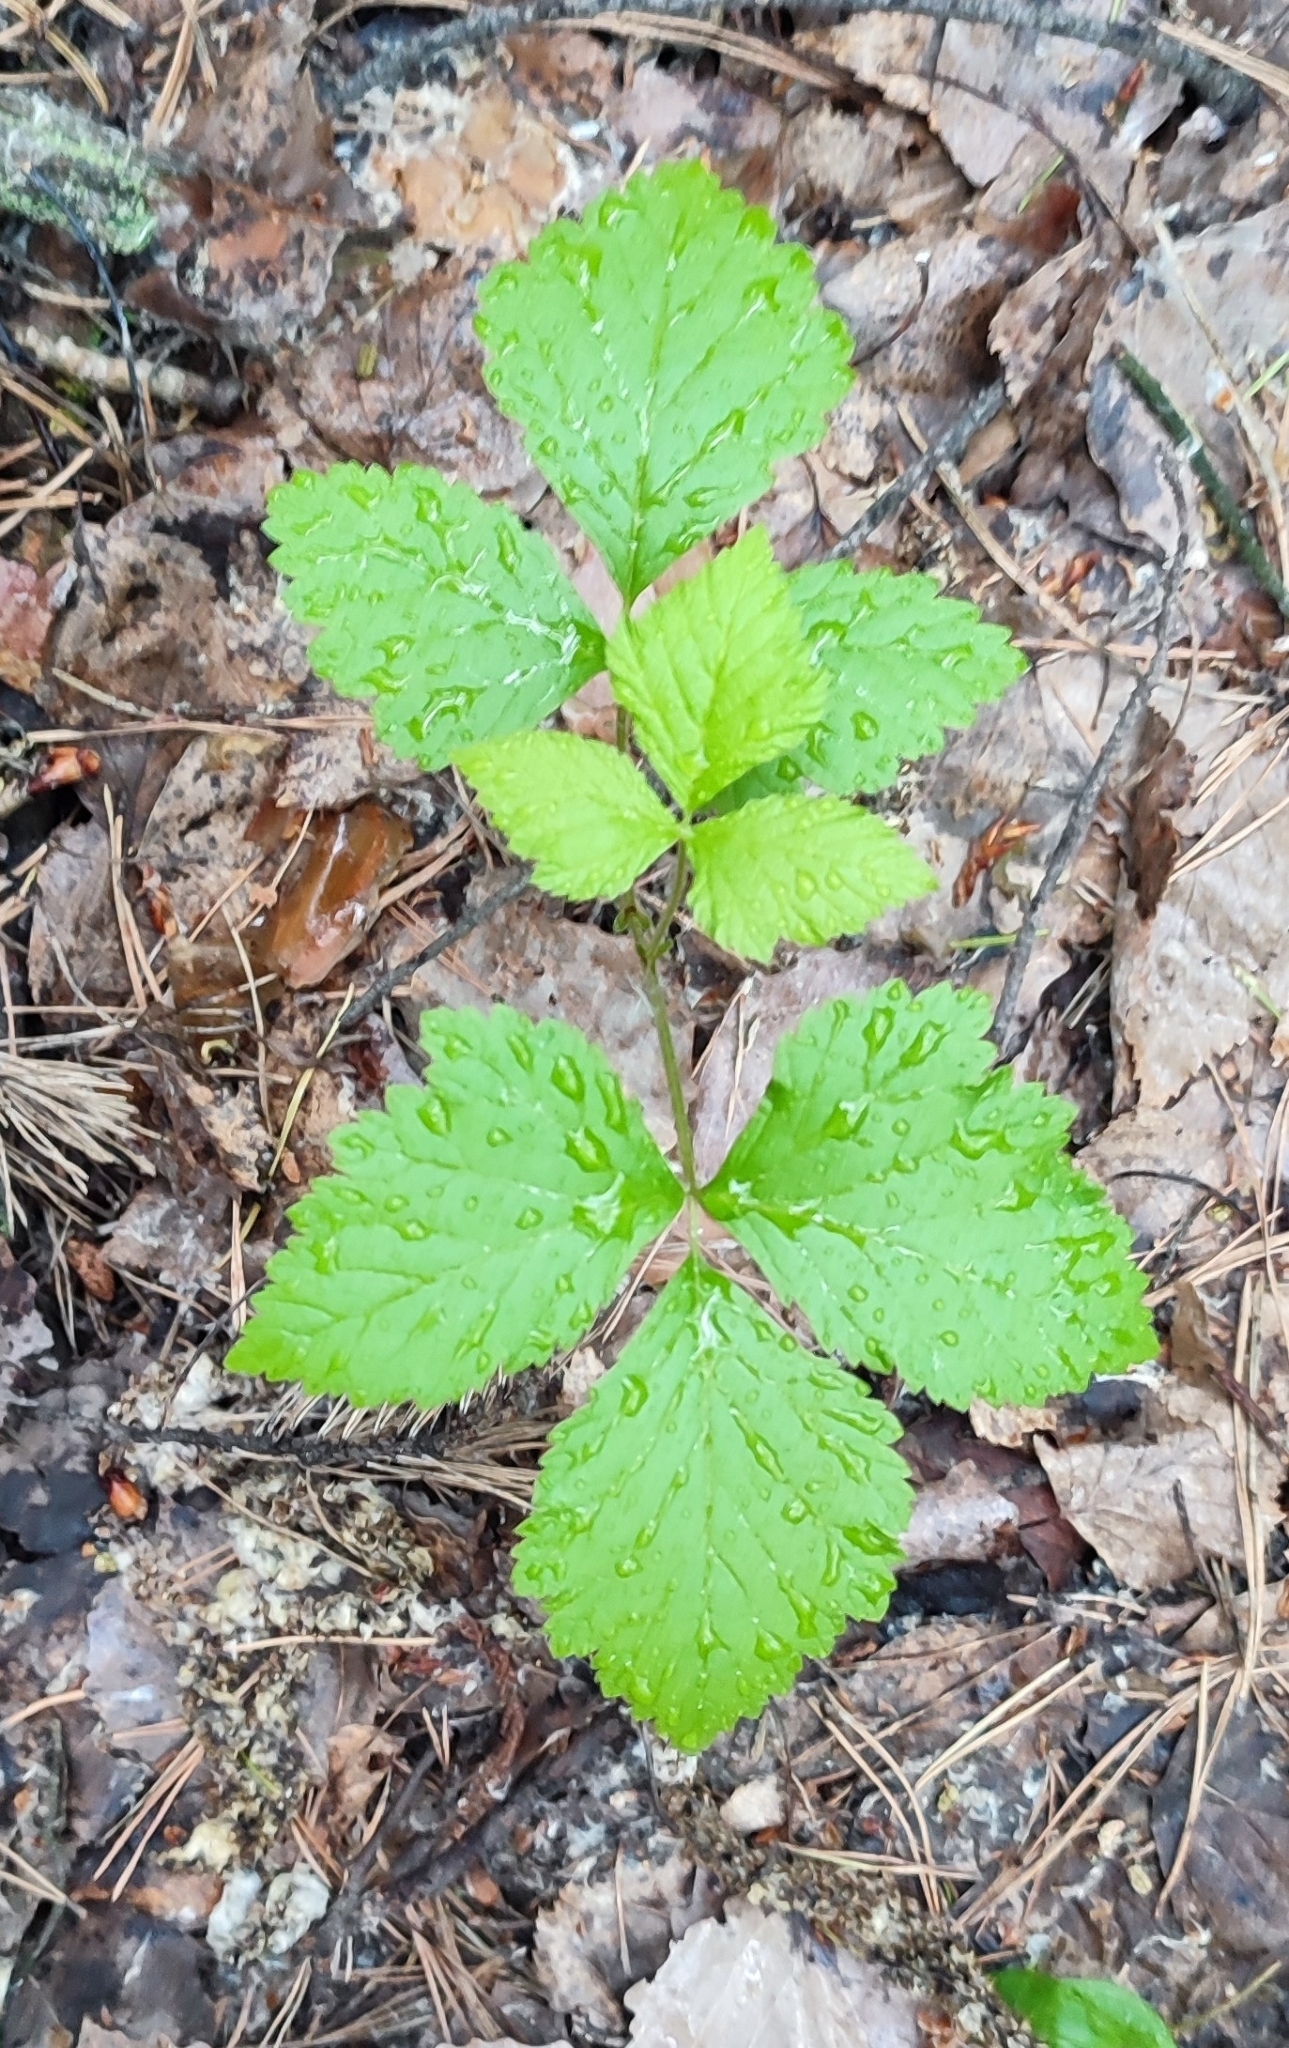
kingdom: Plantae
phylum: Tracheophyta
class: Magnoliopsida
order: Rosales
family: Rosaceae
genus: Rubus
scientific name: Rubus saxatilis
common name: Stone bramble
